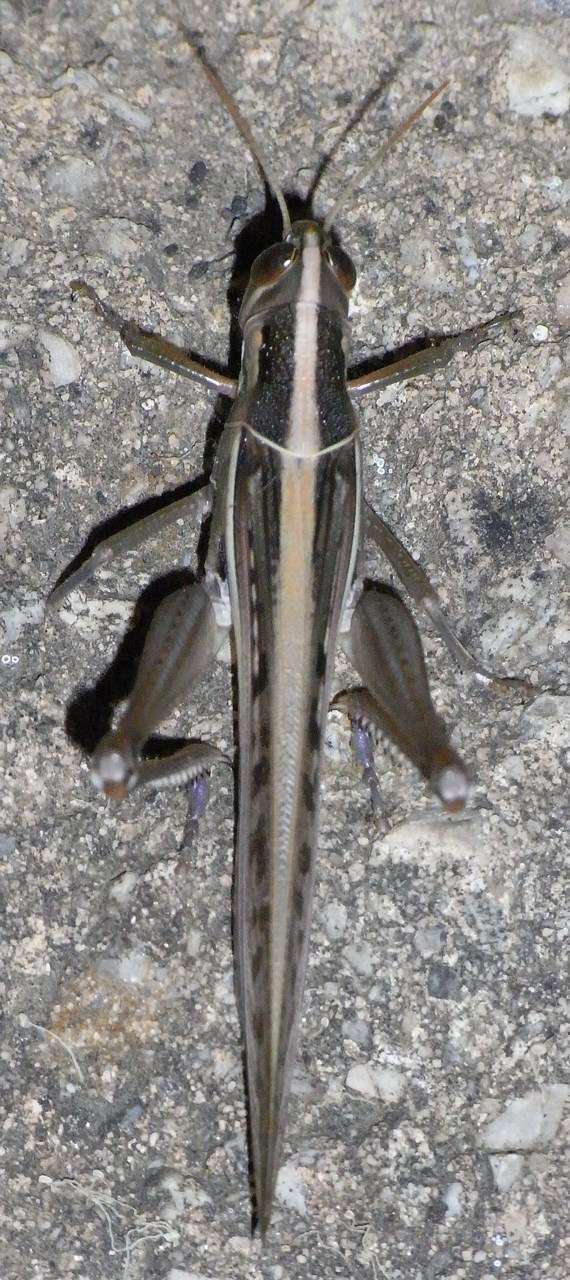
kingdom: Animalia
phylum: Arthropoda
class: Insecta
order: Orthoptera
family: Acrididae
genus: Austracris
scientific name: Austracris guttulosa
